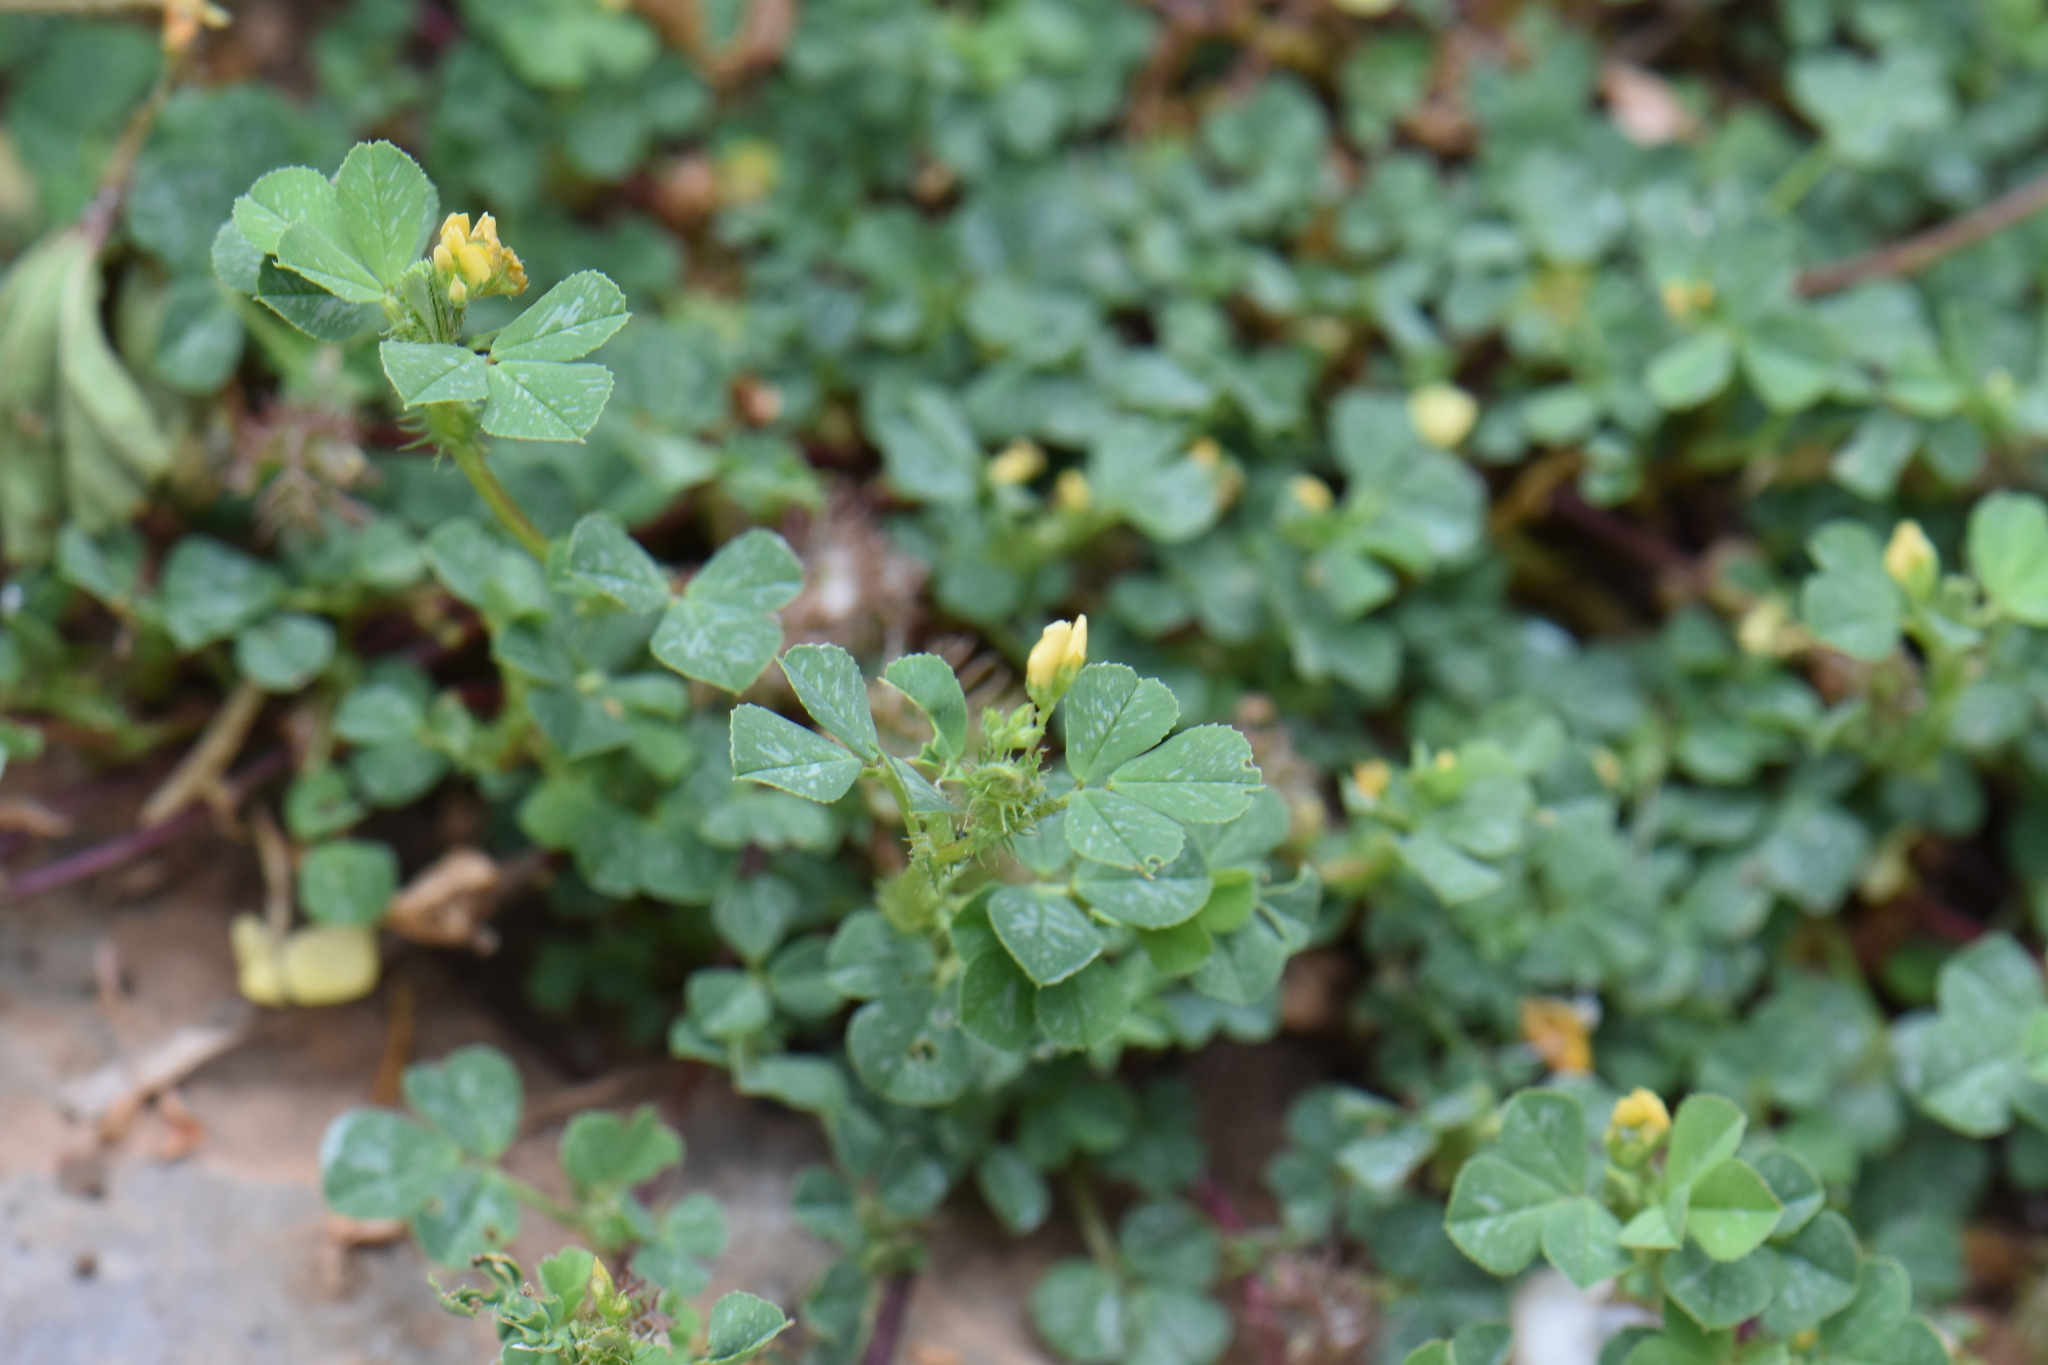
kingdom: Plantae
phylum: Tracheophyta
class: Magnoliopsida
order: Fabales
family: Fabaceae
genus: Medicago
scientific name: Medicago truncatula
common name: Strong-spined medick
